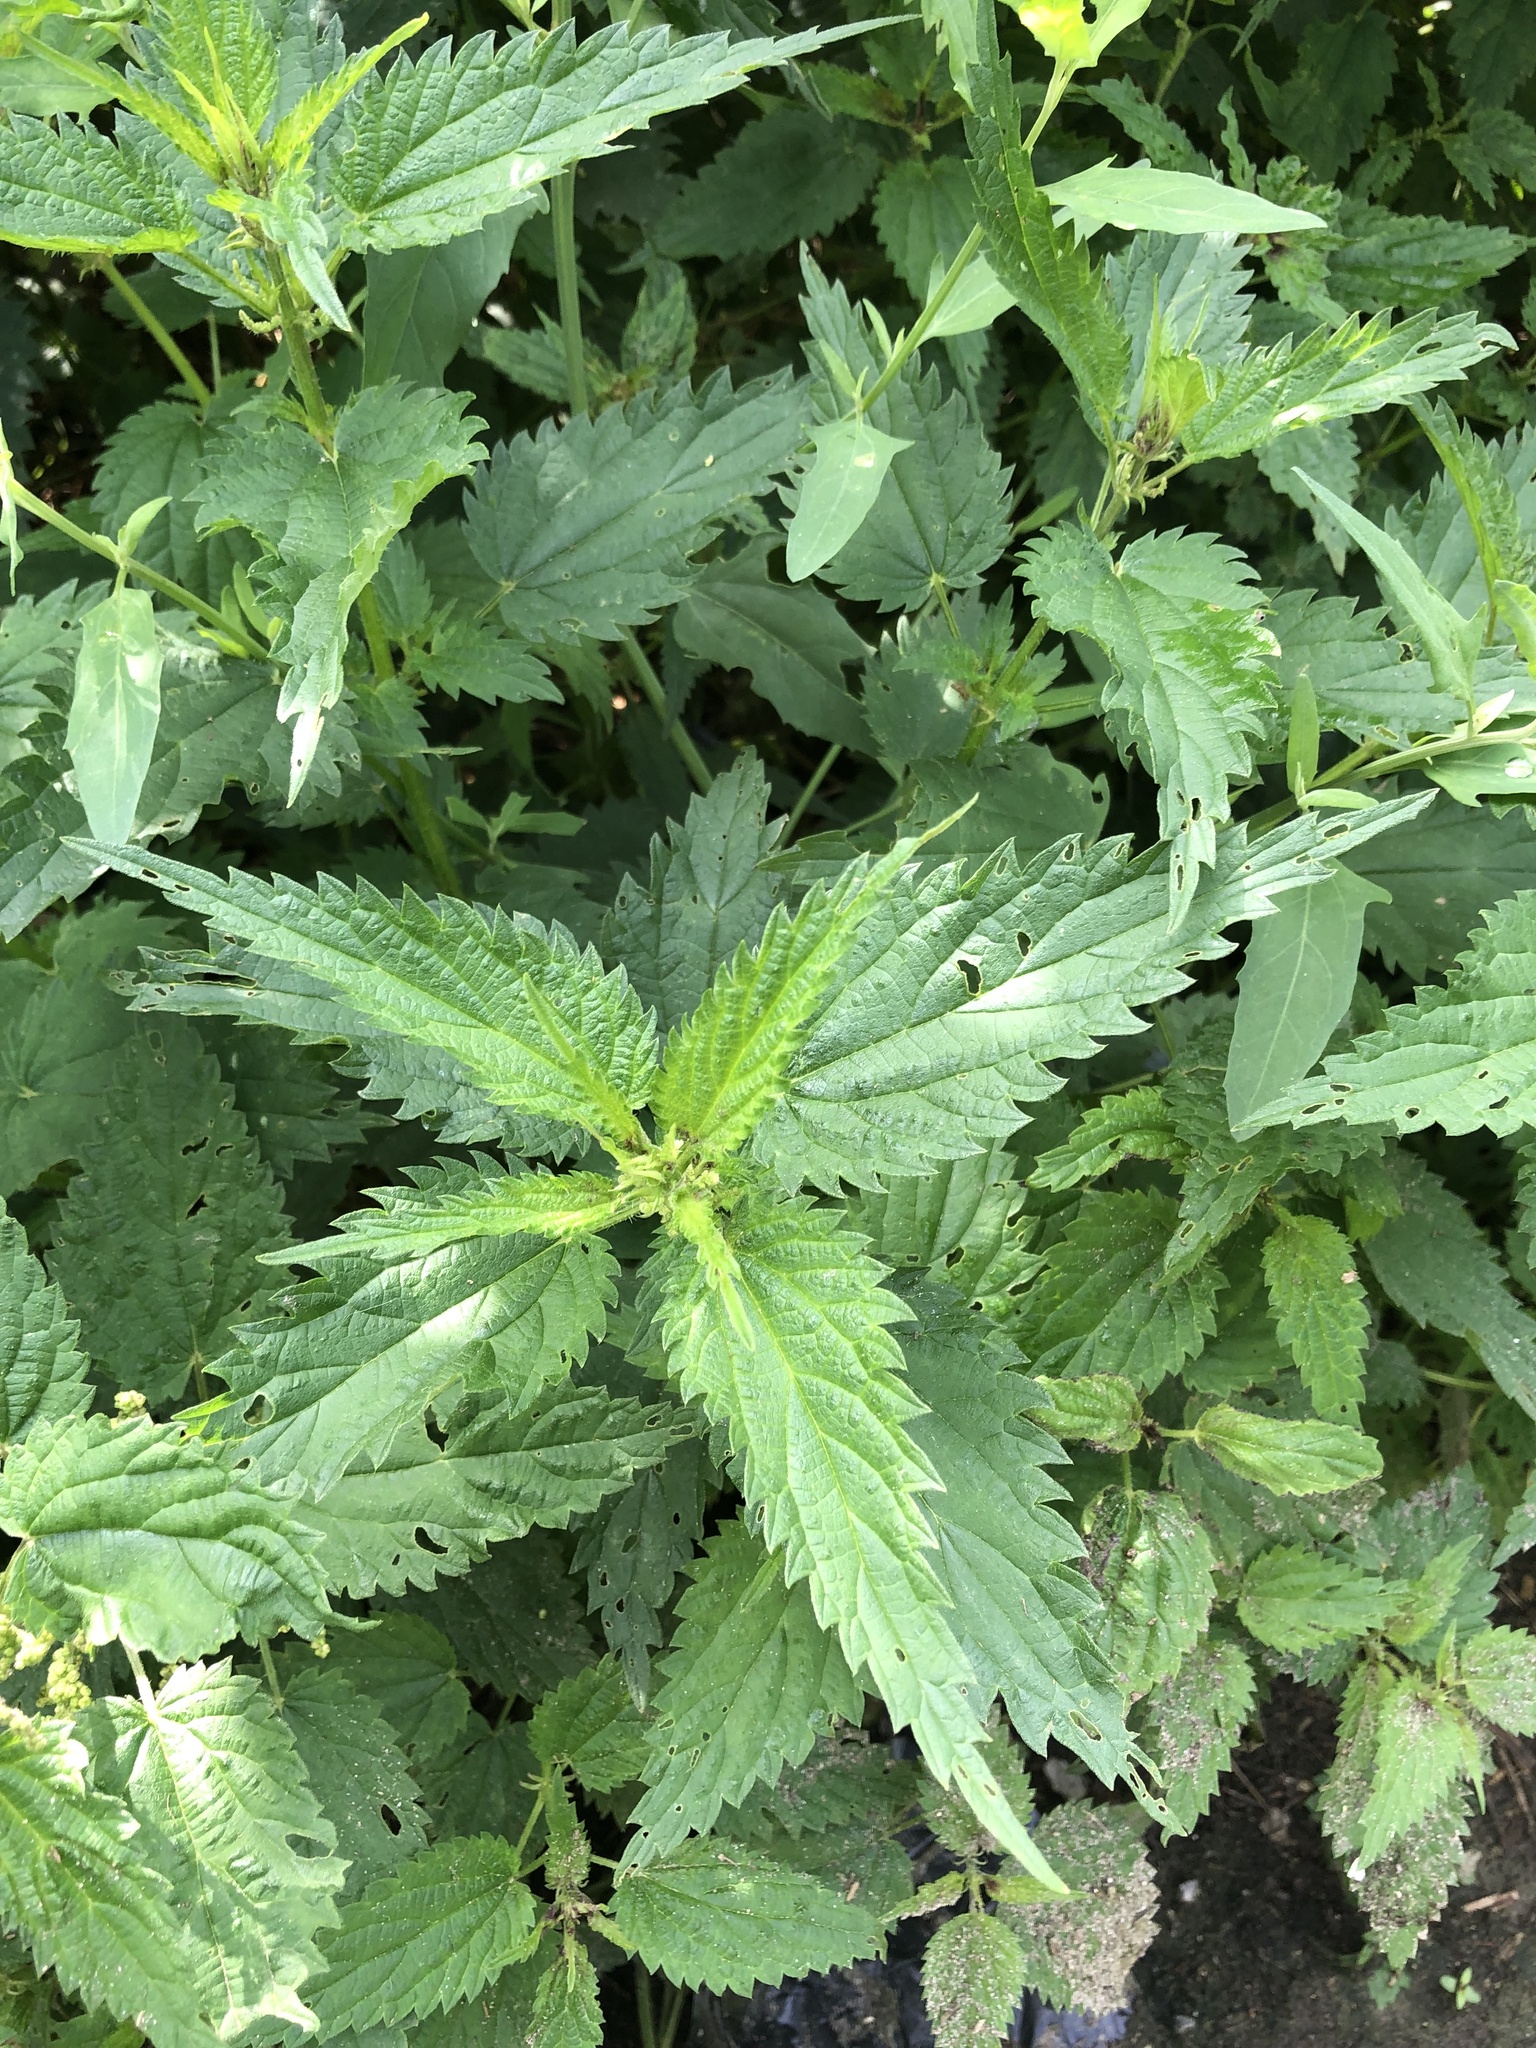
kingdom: Plantae
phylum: Tracheophyta
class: Magnoliopsida
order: Rosales
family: Urticaceae
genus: Urtica
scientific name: Urtica dioica
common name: Common nettle
